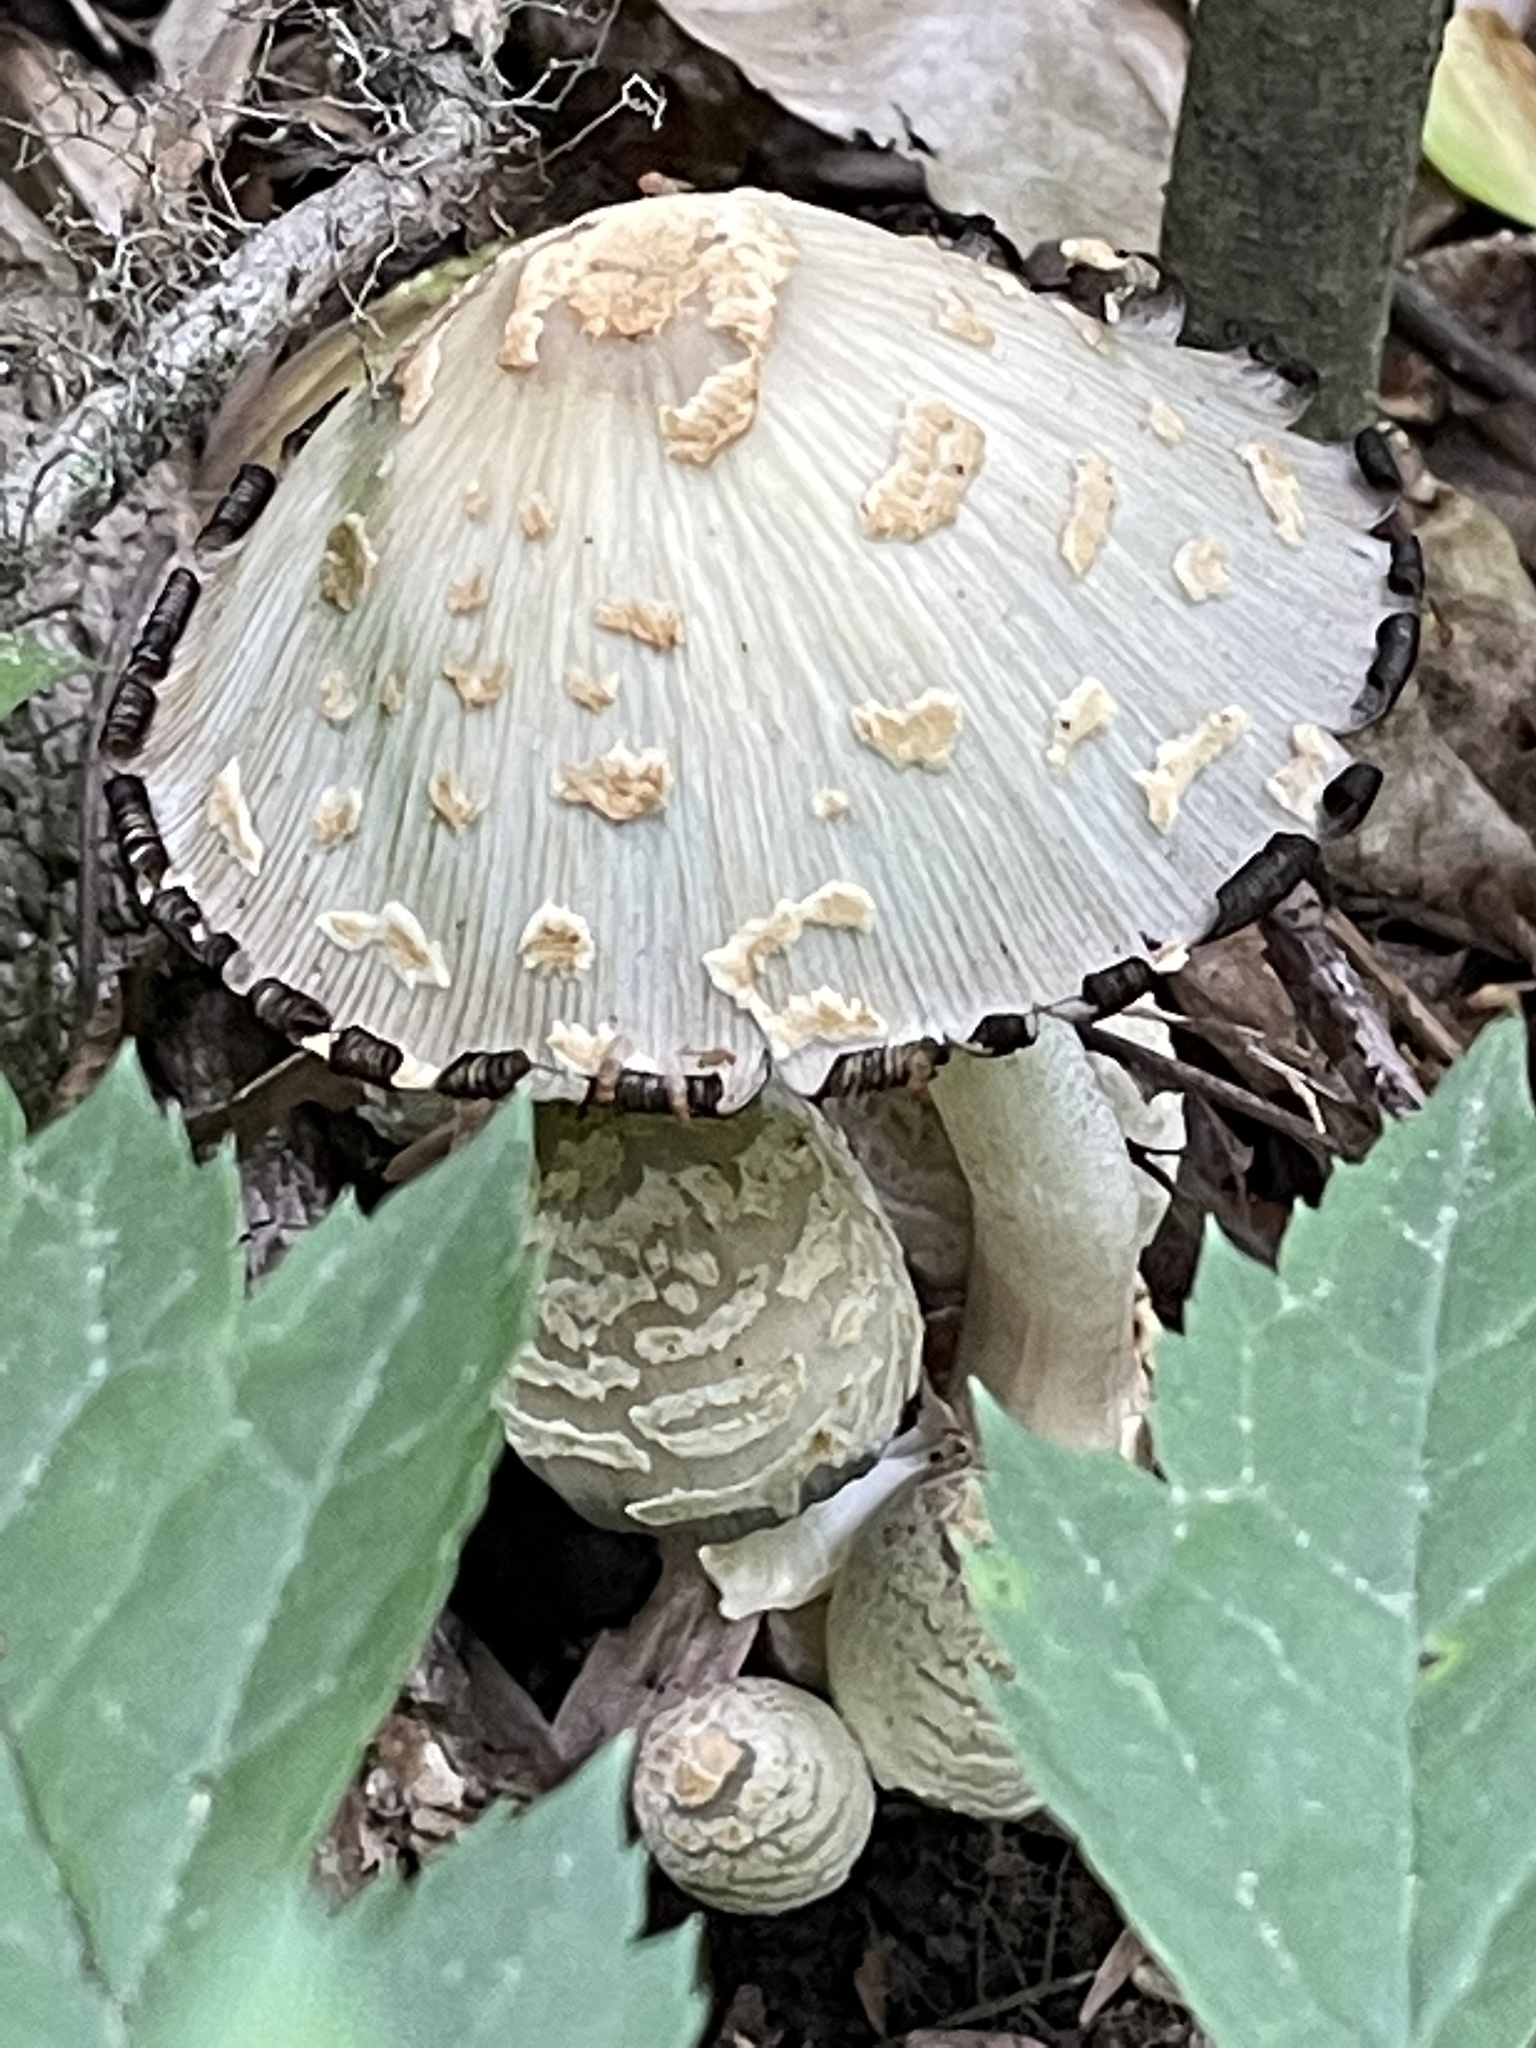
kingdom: Fungi
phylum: Basidiomycota
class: Agaricomycetes
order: Agaricales
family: Psathyrellaceae
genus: Coprinopsis
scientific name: Coprinopsis variegata
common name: Scaly ink cap
